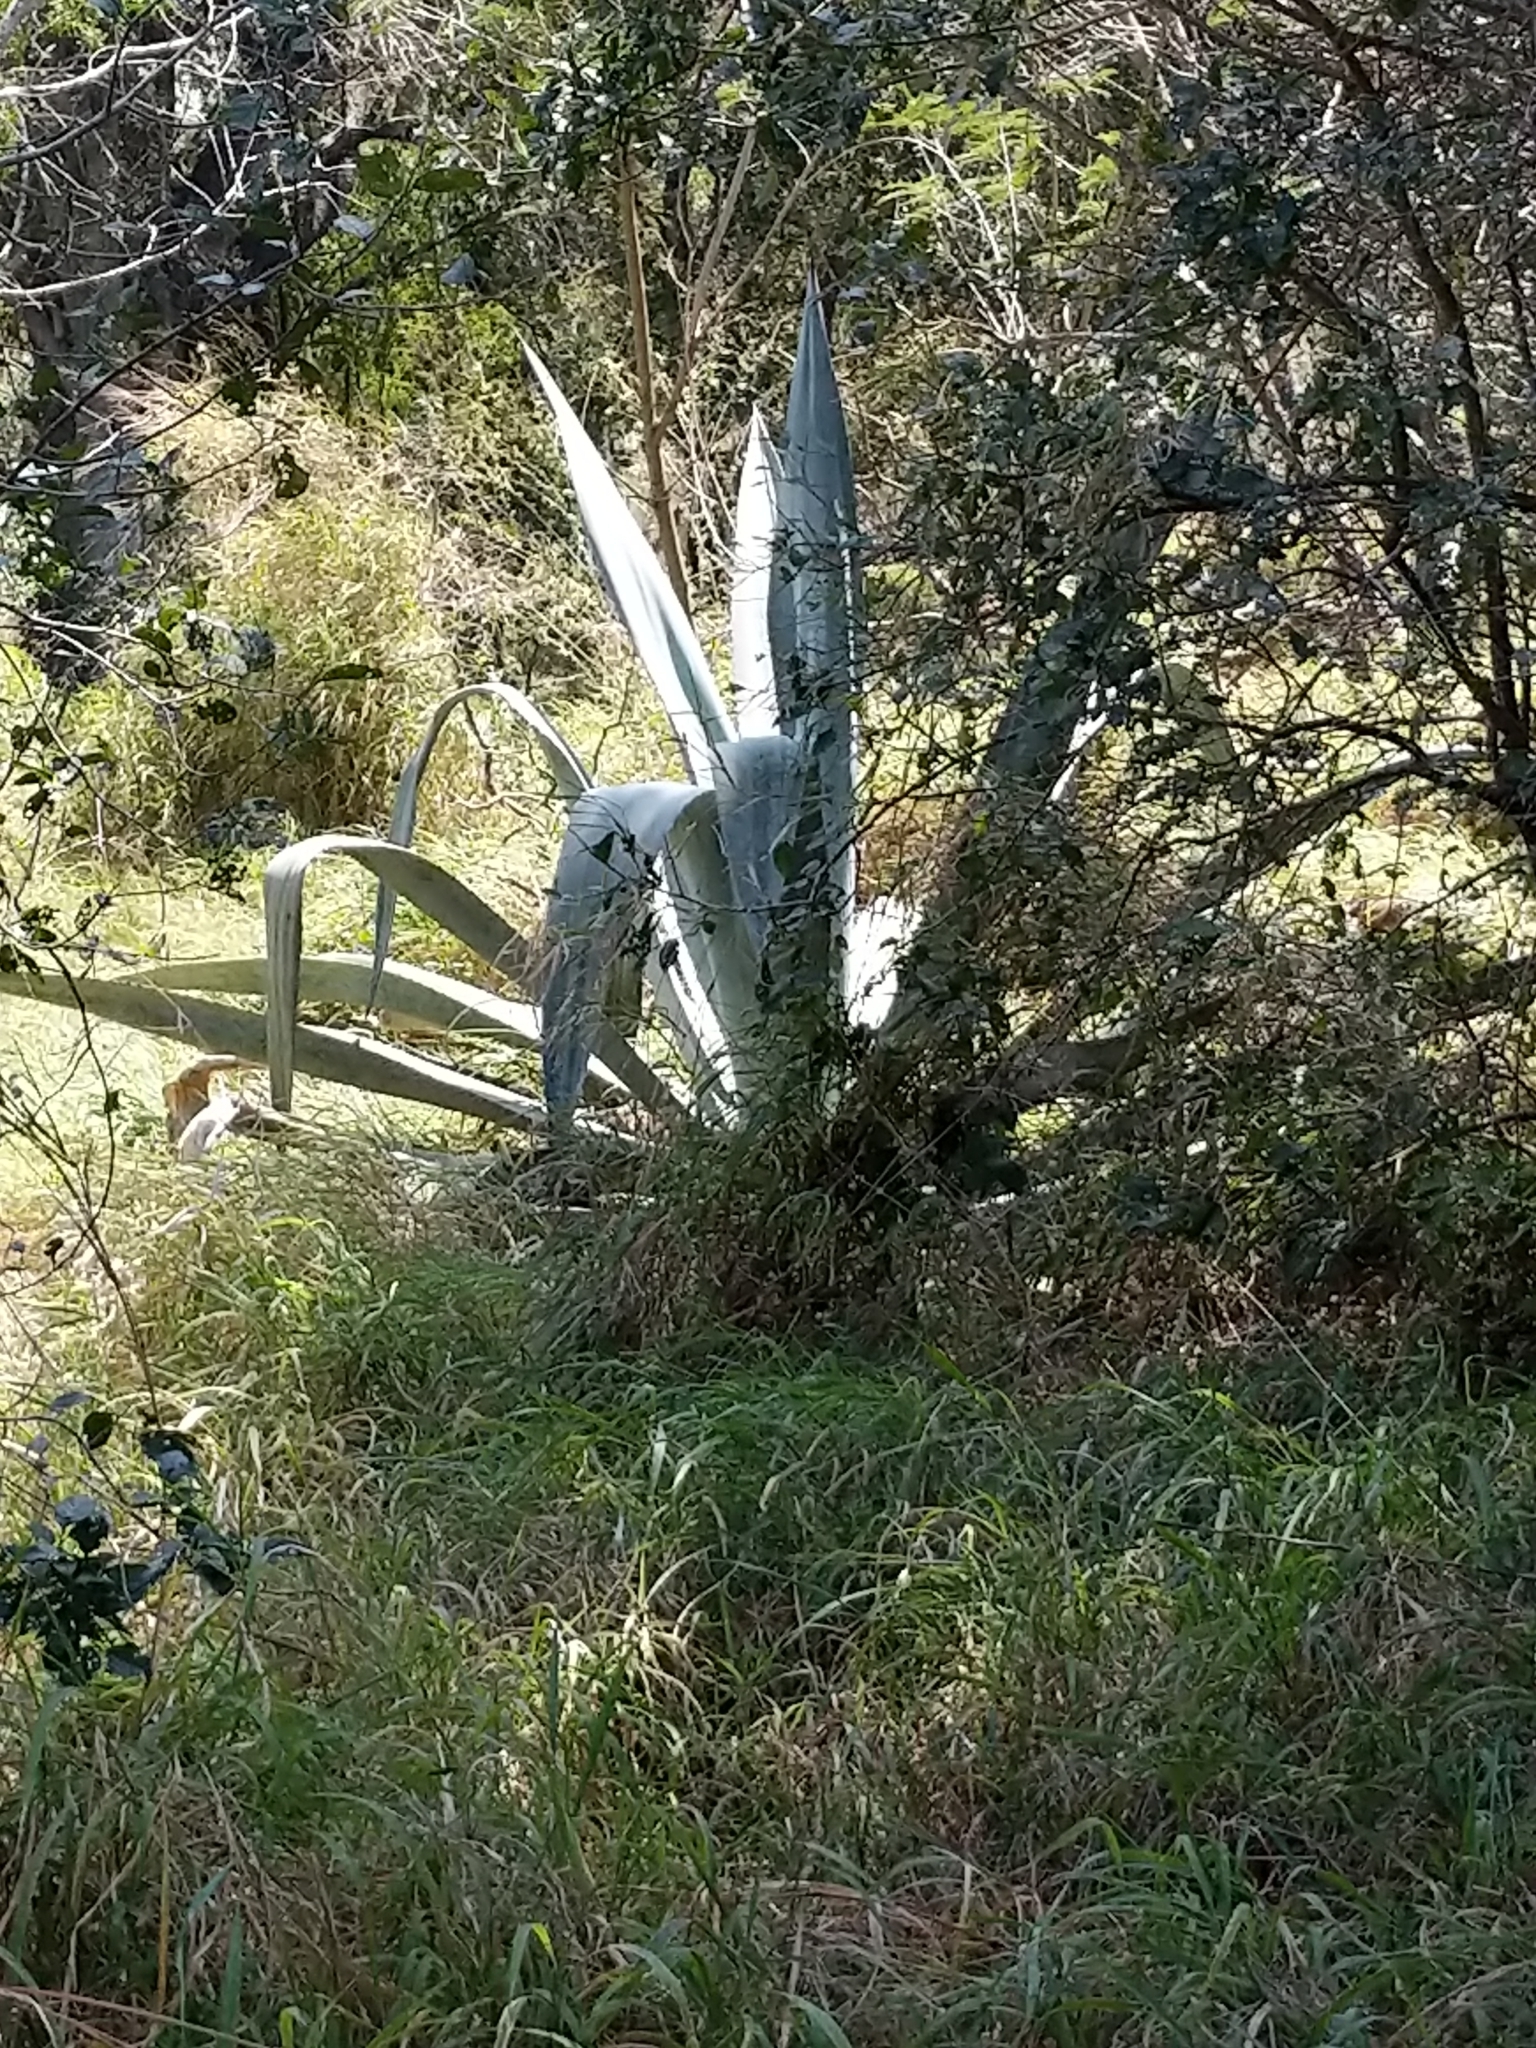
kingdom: Plantae
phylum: Tracheophyta
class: Liliopsida
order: Asparagales
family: Asparagaceae
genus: Agave
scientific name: Agave americana
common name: Centuryplant
